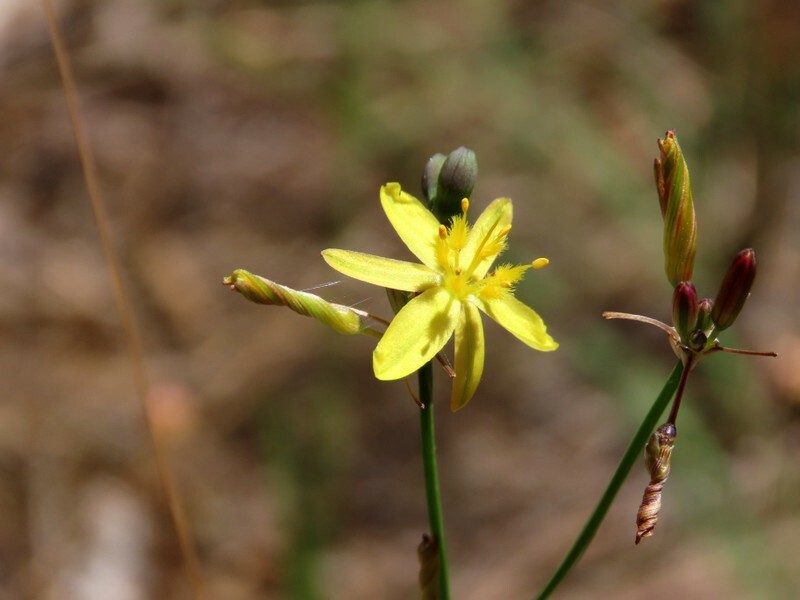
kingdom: Plantae
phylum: Tracheophyta
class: Liliopsida
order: Asparagales
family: Asphodelaceae
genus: Tricoryne
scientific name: Tricoryne elatior
